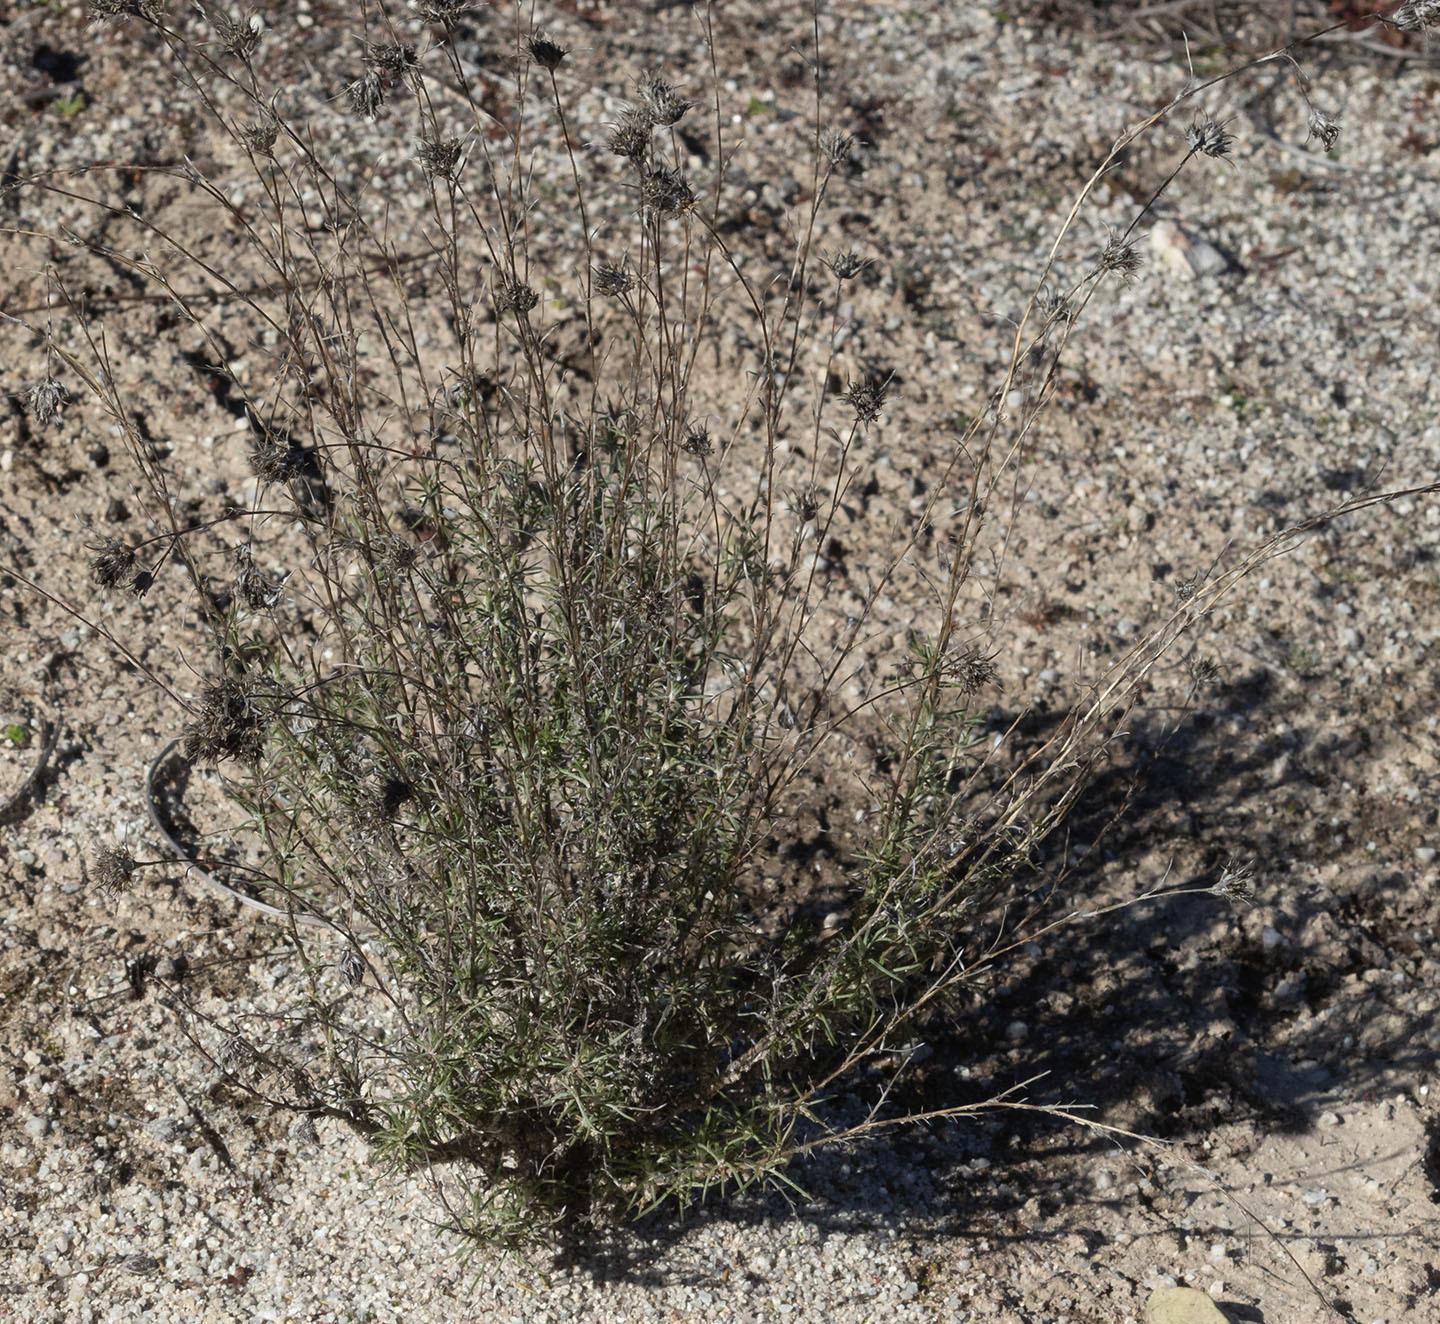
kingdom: Plantae
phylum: Tracheophyta
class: Magnoliopsida
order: Ericales
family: Polemoniaceae
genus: Eriastrum
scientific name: Eriastrum densifolium
